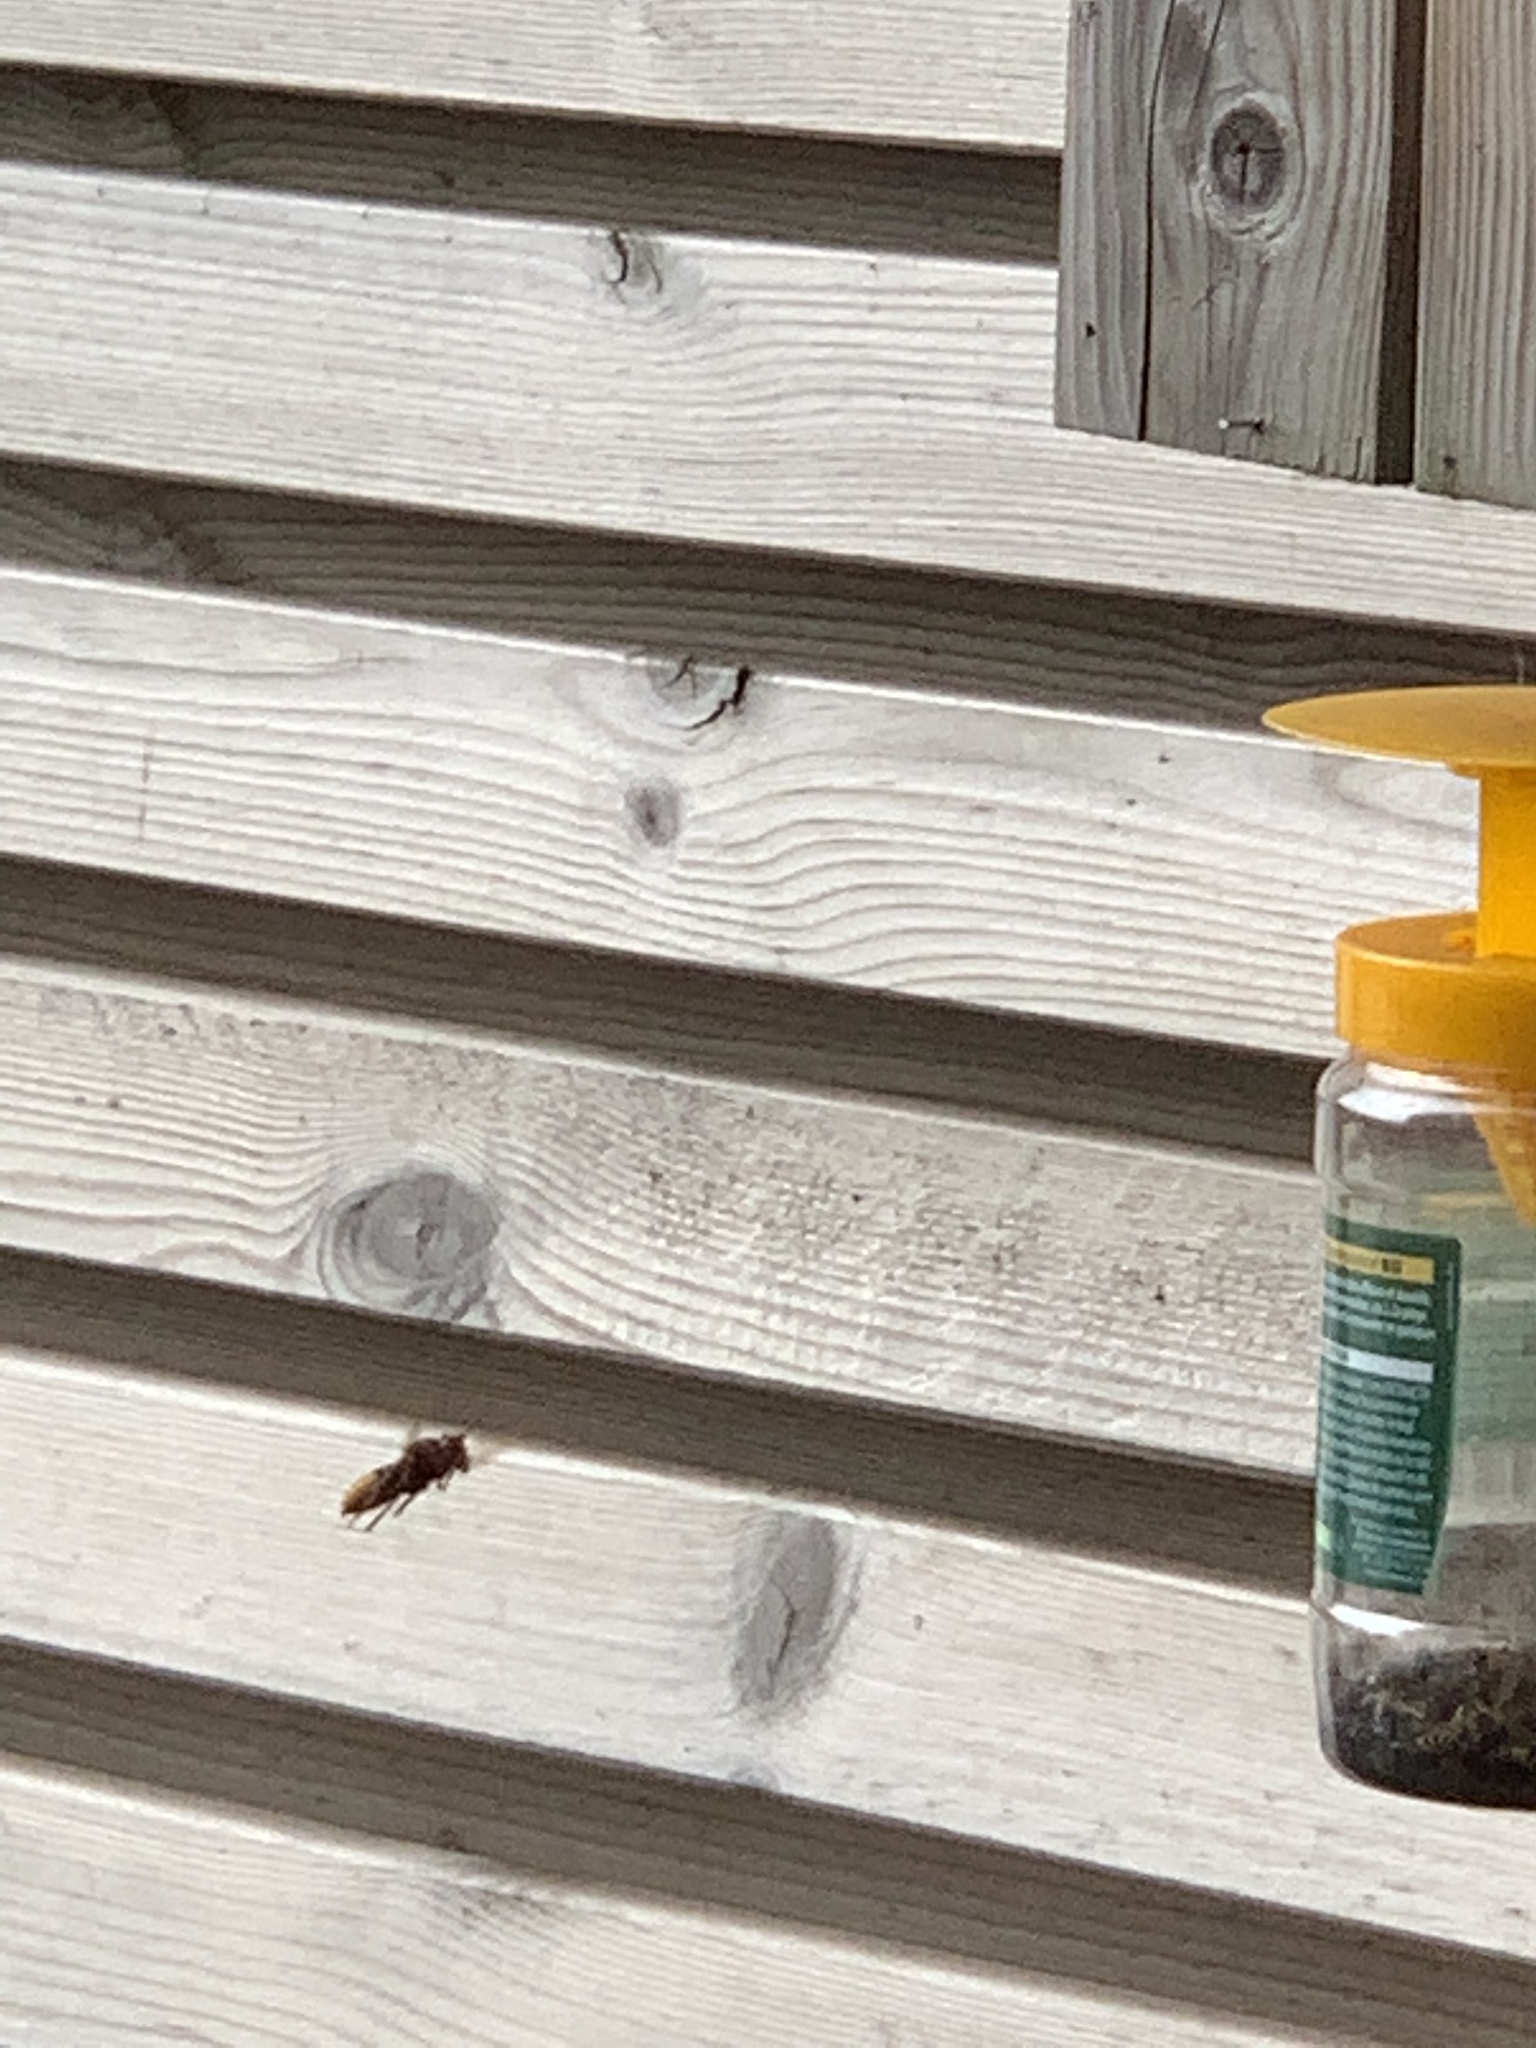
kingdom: Animalia
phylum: Arthropoda
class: Insecta
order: Hymenoptera
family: Vespidae
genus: Vespa
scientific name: Vespa crabro
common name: Hornet
